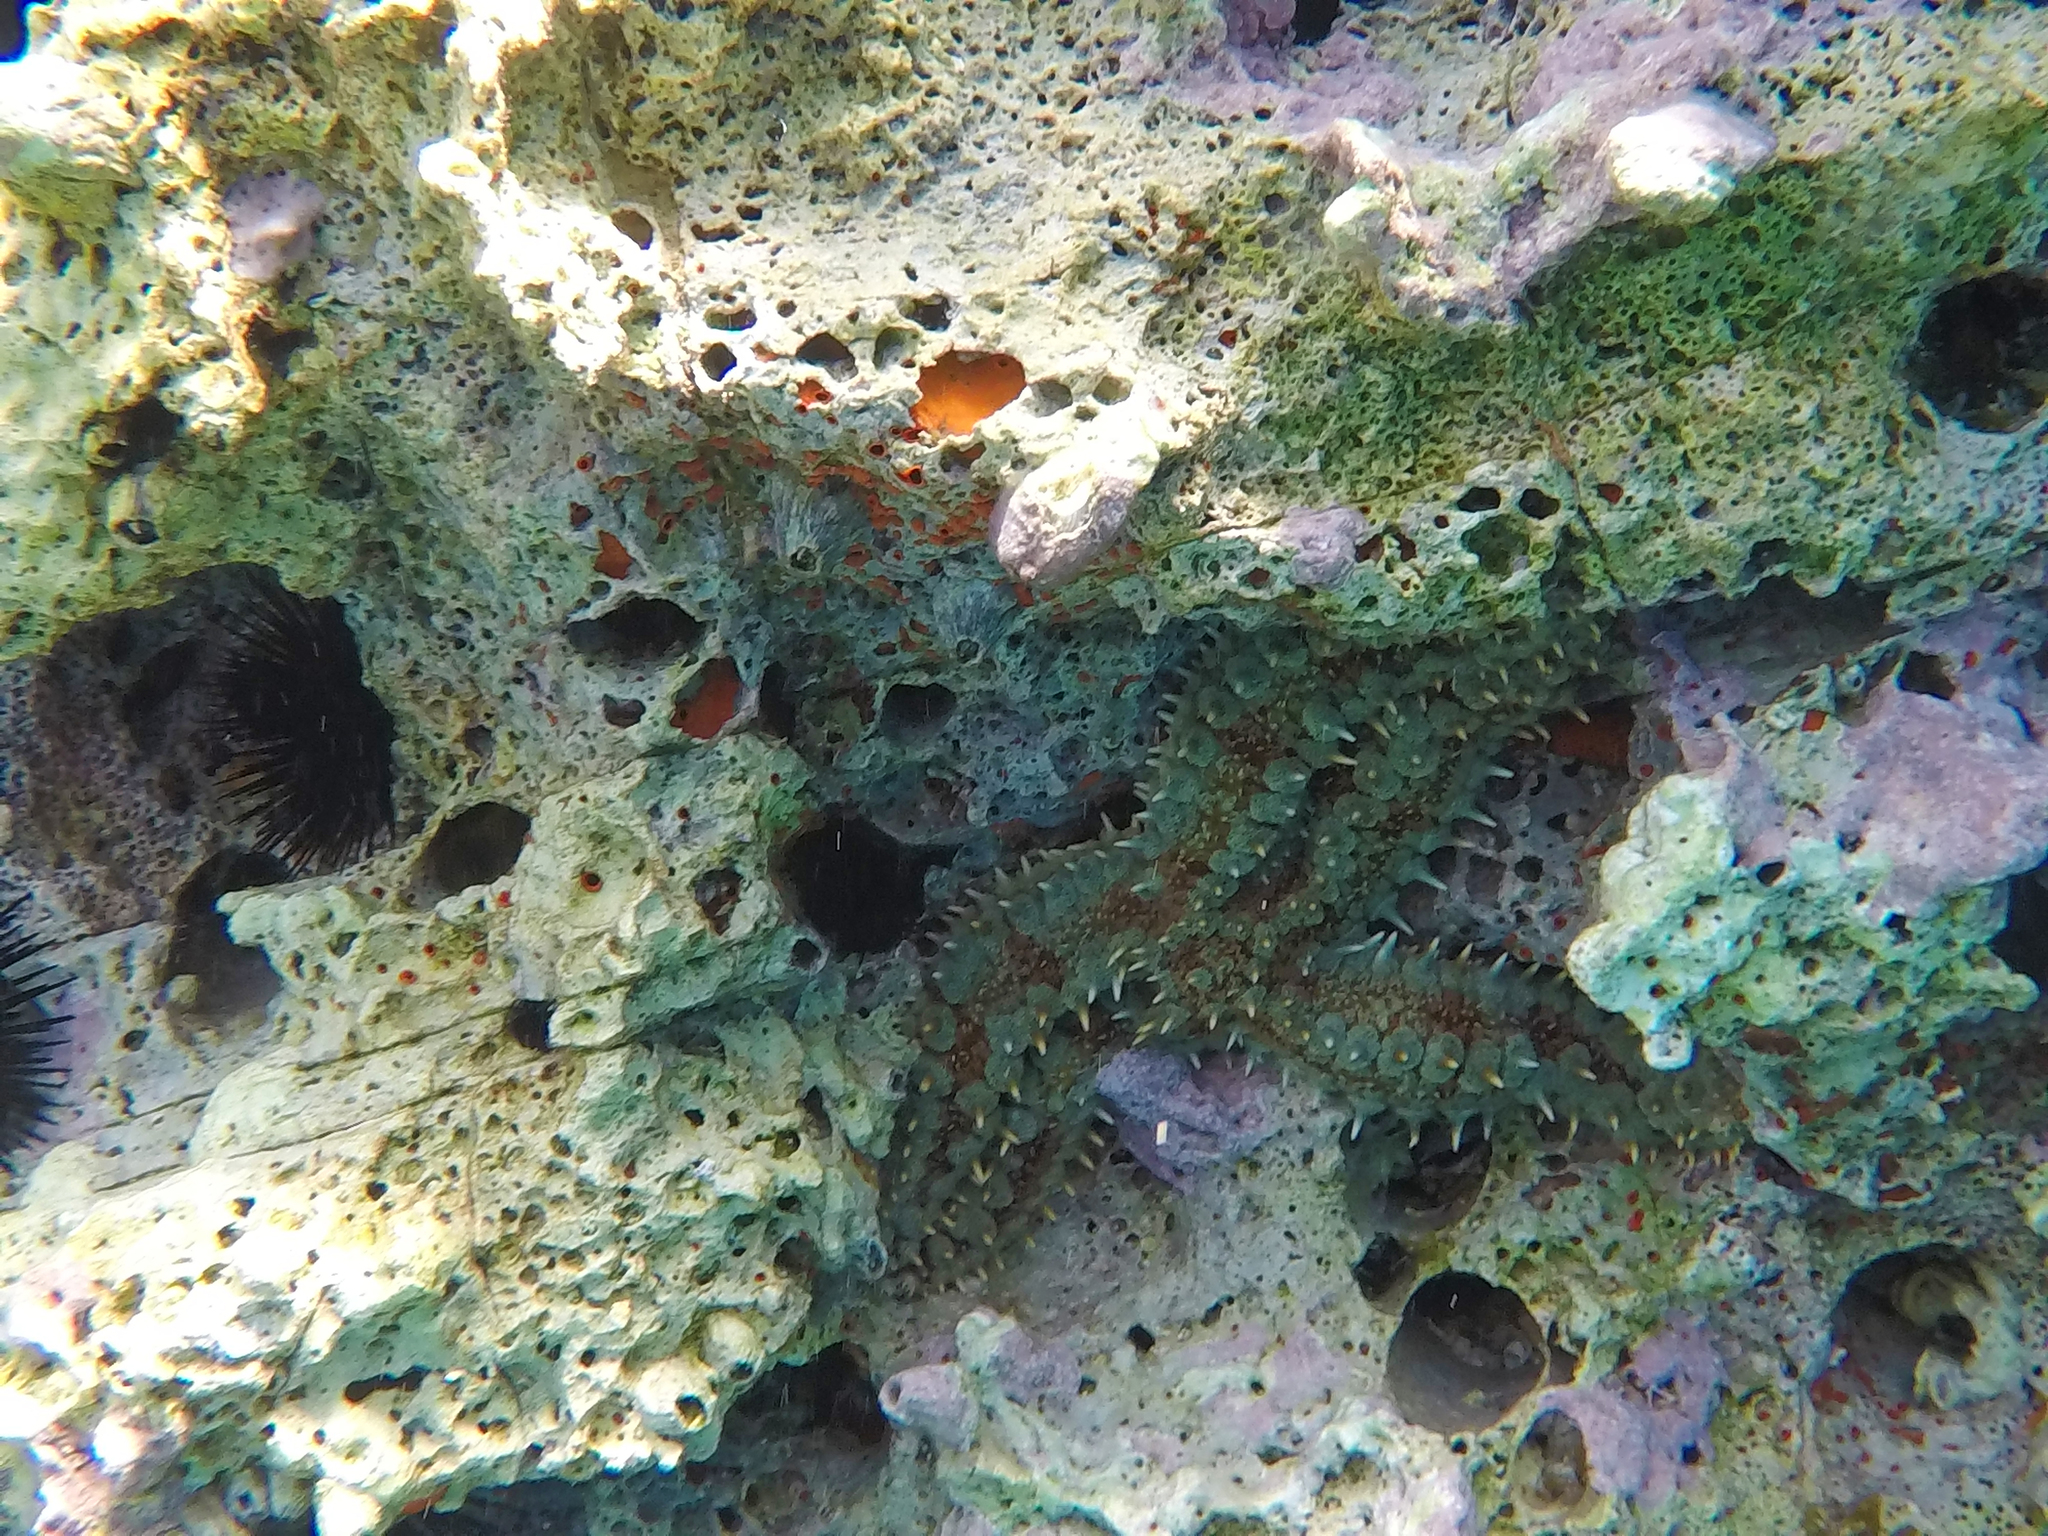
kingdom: Animalia
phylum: Echinodermata
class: Asteroidea
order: Forcipulatida
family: Asteriidae
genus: Marthasterias
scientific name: Marthasterias glacialis
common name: Spiny starfish
